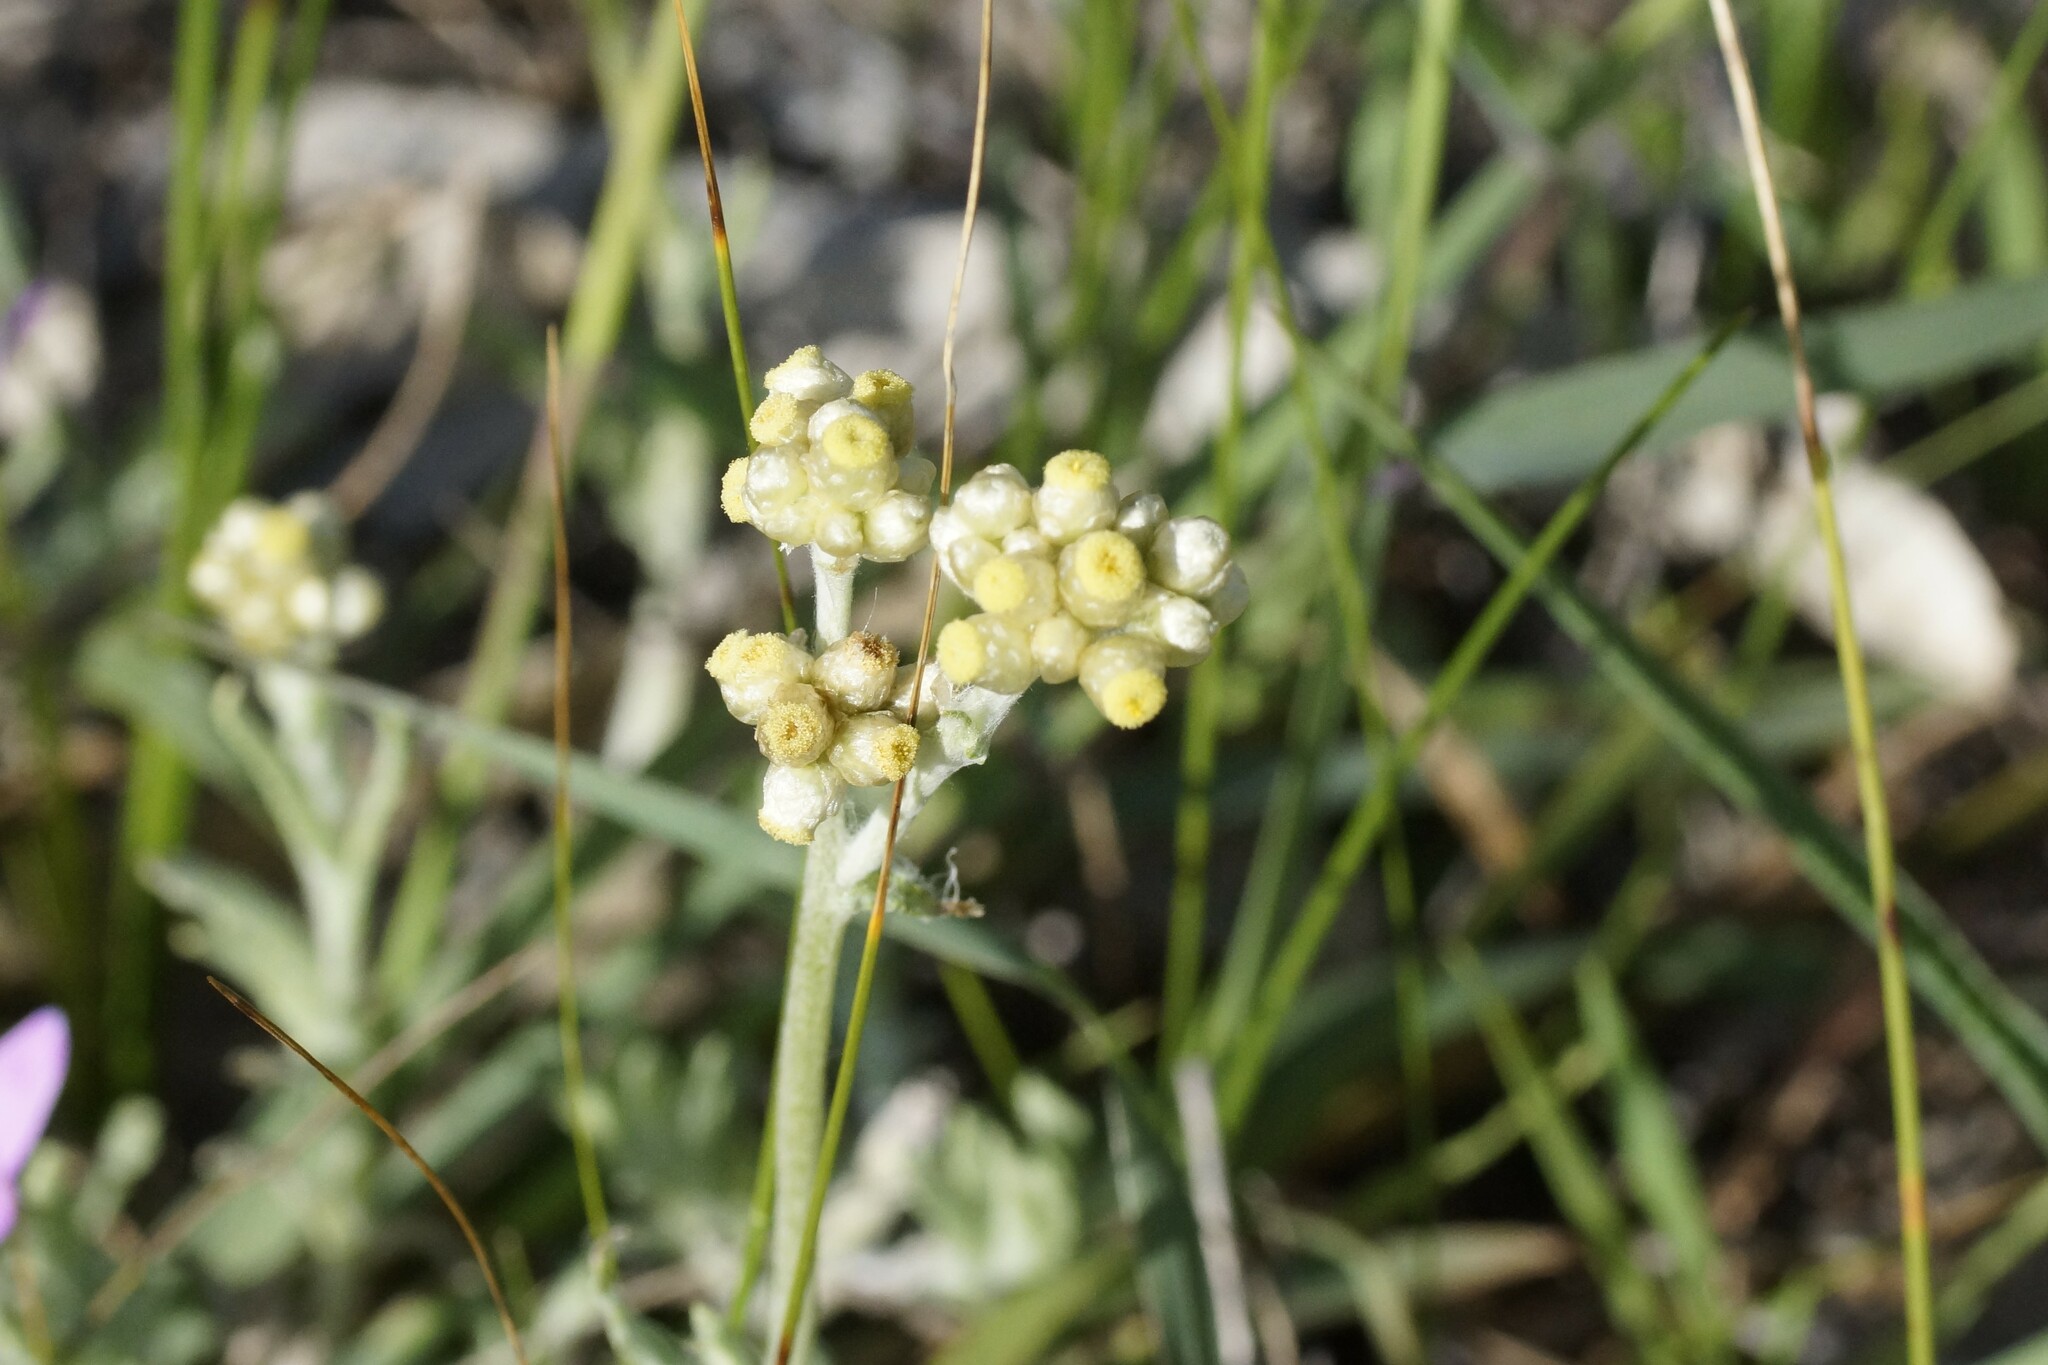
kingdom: Plantae
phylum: Tracheophyta
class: Magnoliopsida
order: Asterales
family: Asteraceae
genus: Helichrysum
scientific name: Helichrysum luteoalbum
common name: Daisy
